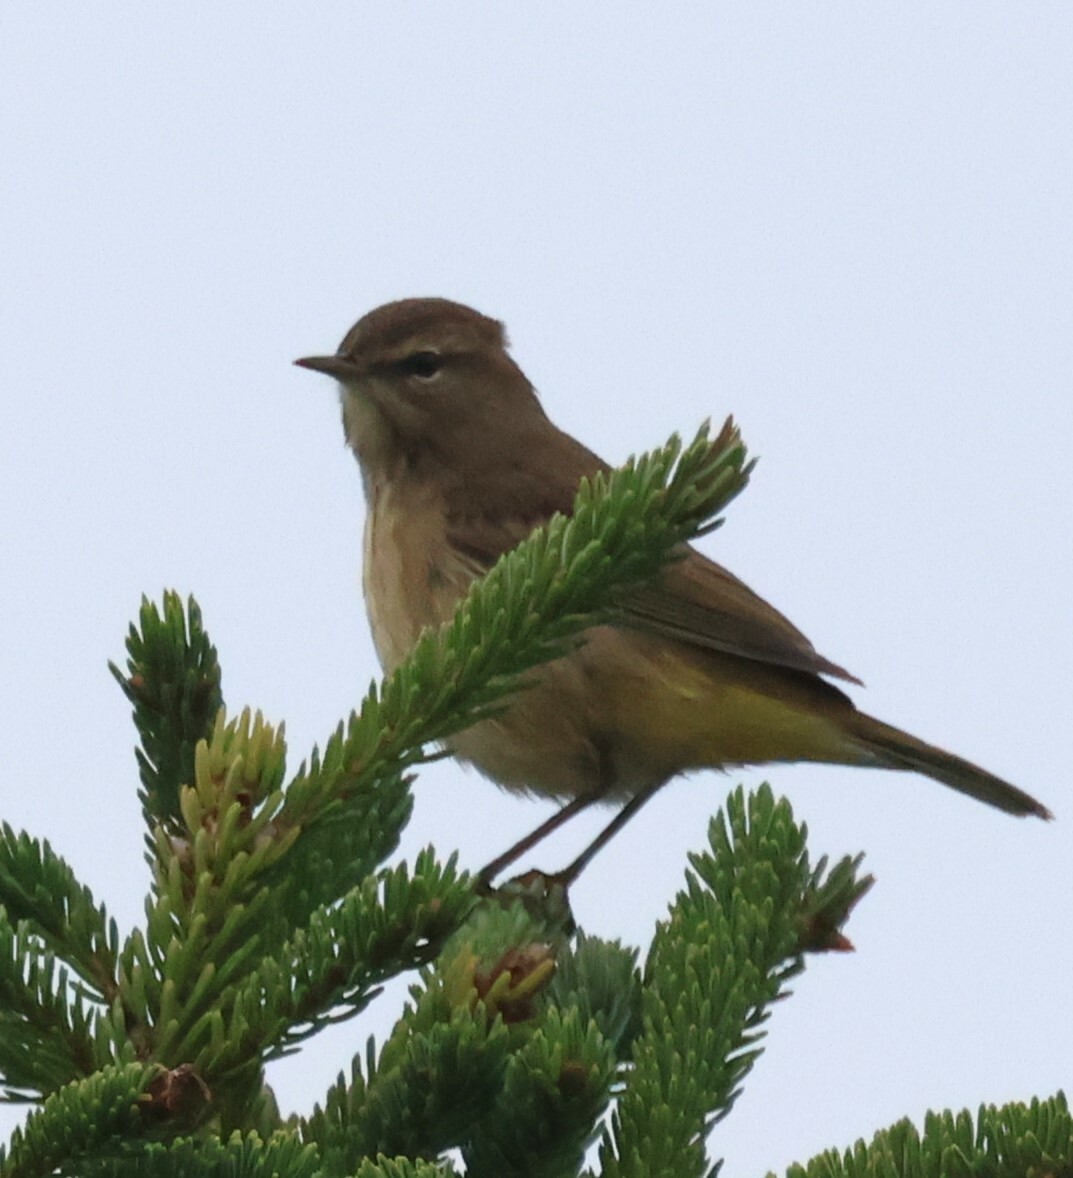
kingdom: Animalia
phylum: Chordata
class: Aves
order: Passeriformes
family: Parulidae
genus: Setophaga
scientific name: Setophaga palmarum
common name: Palm warbler
